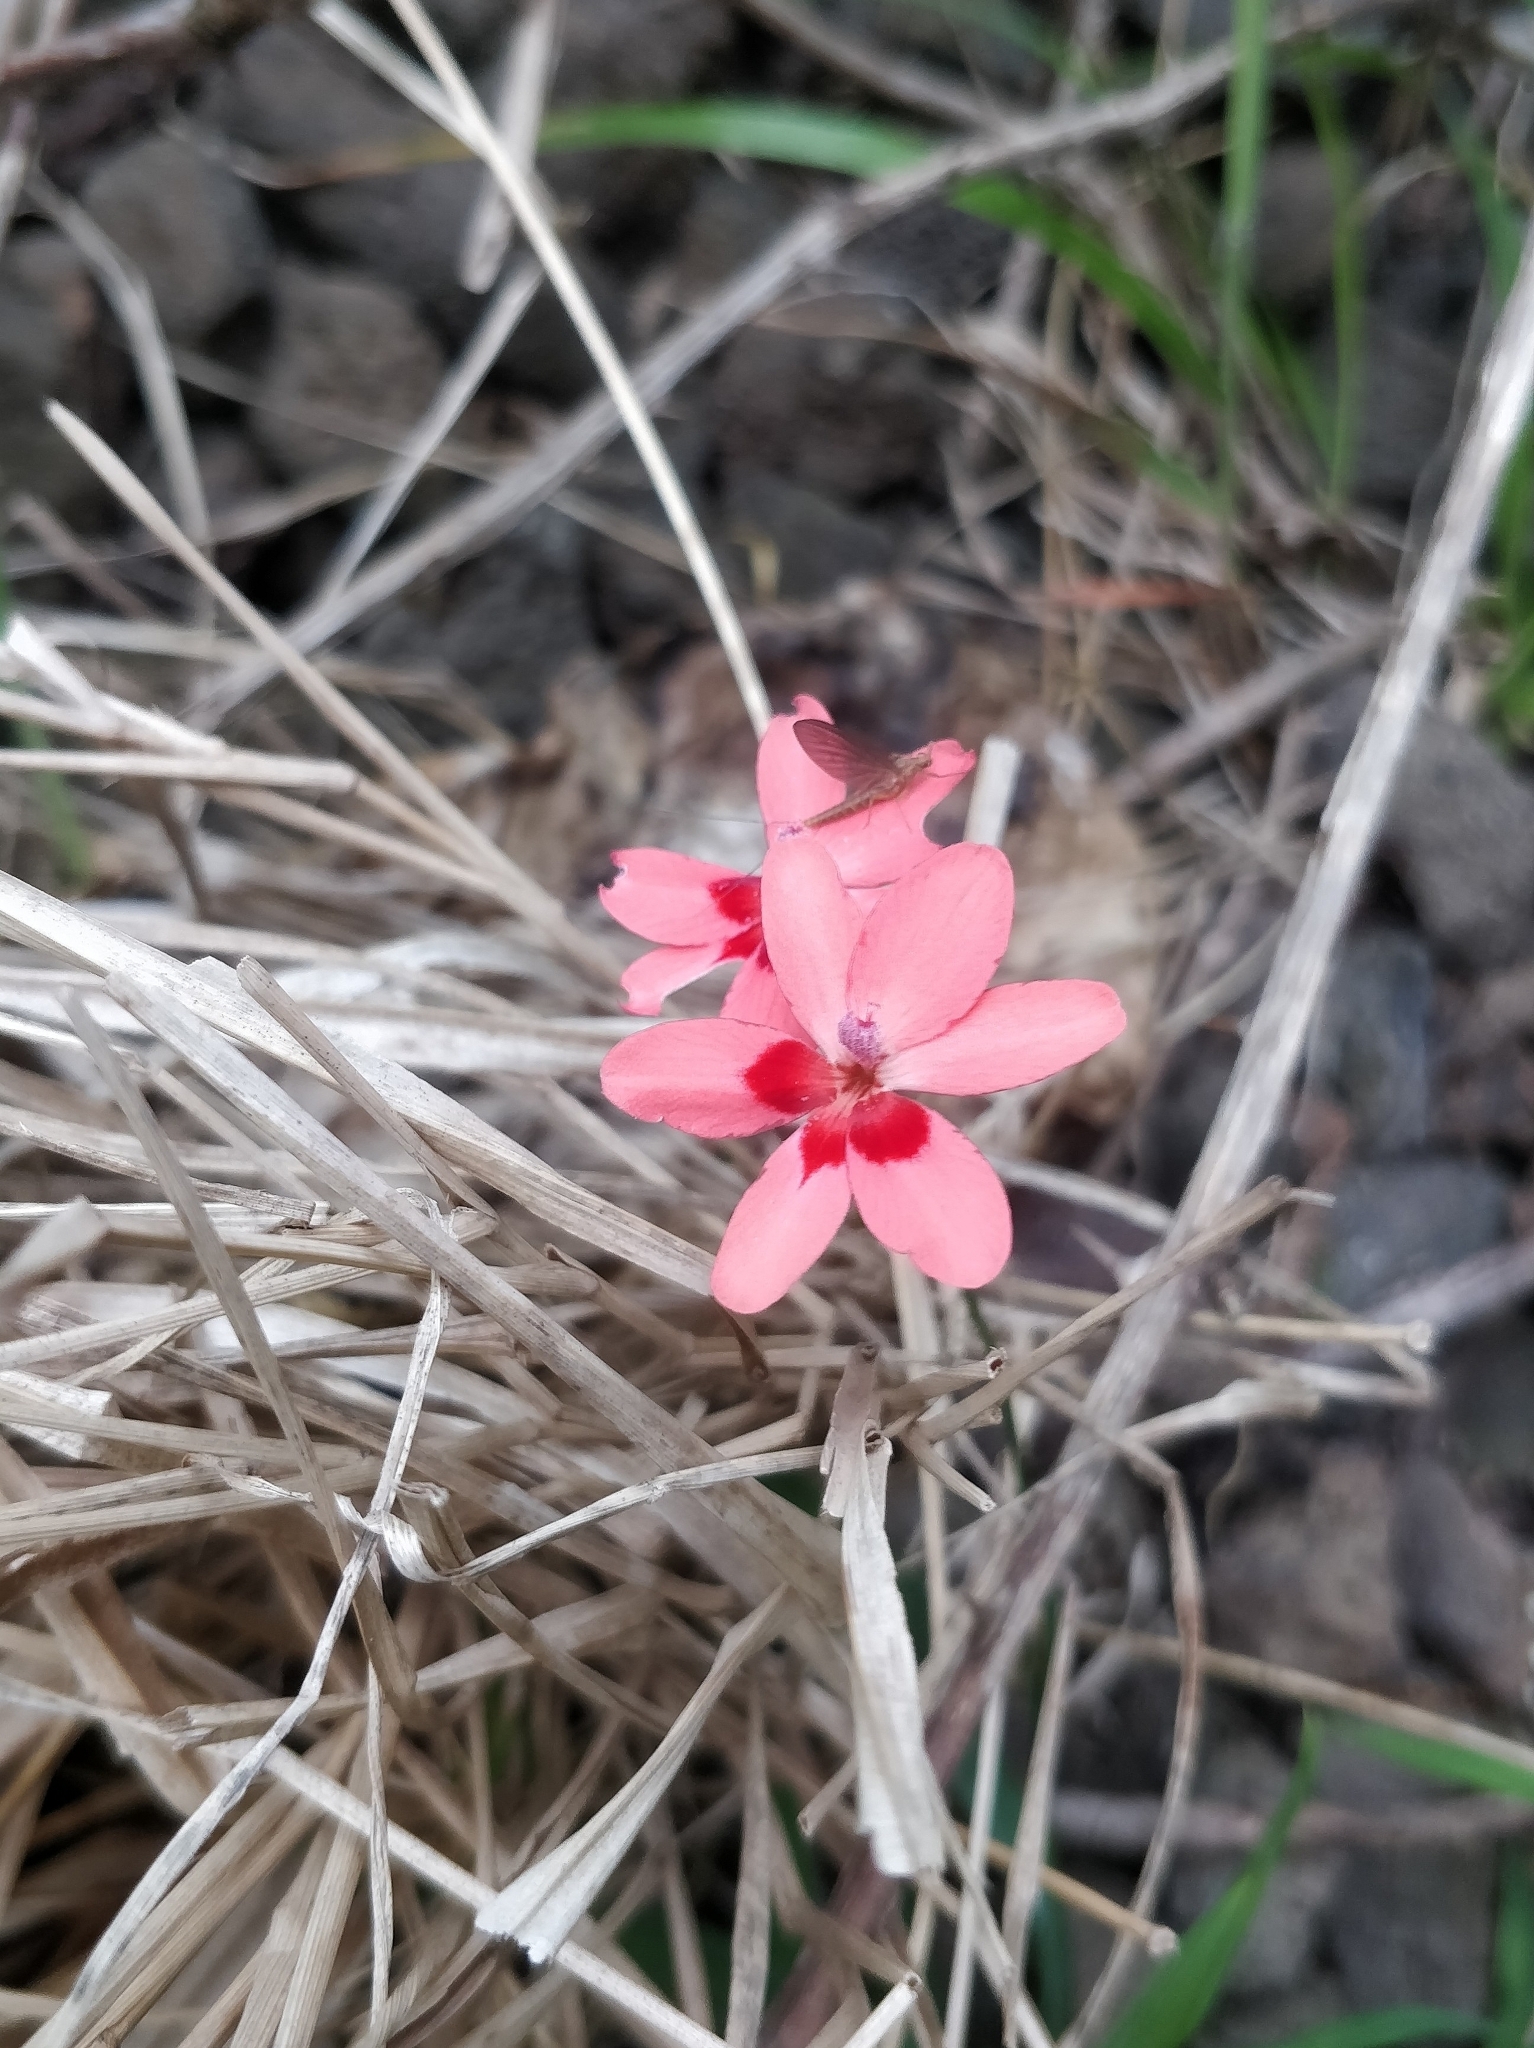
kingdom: Plantae
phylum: Tracheophyta
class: Liliopsida
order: Asparagales
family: Iridaceae
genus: Freesia
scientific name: Freesia laxa
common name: False freesia
